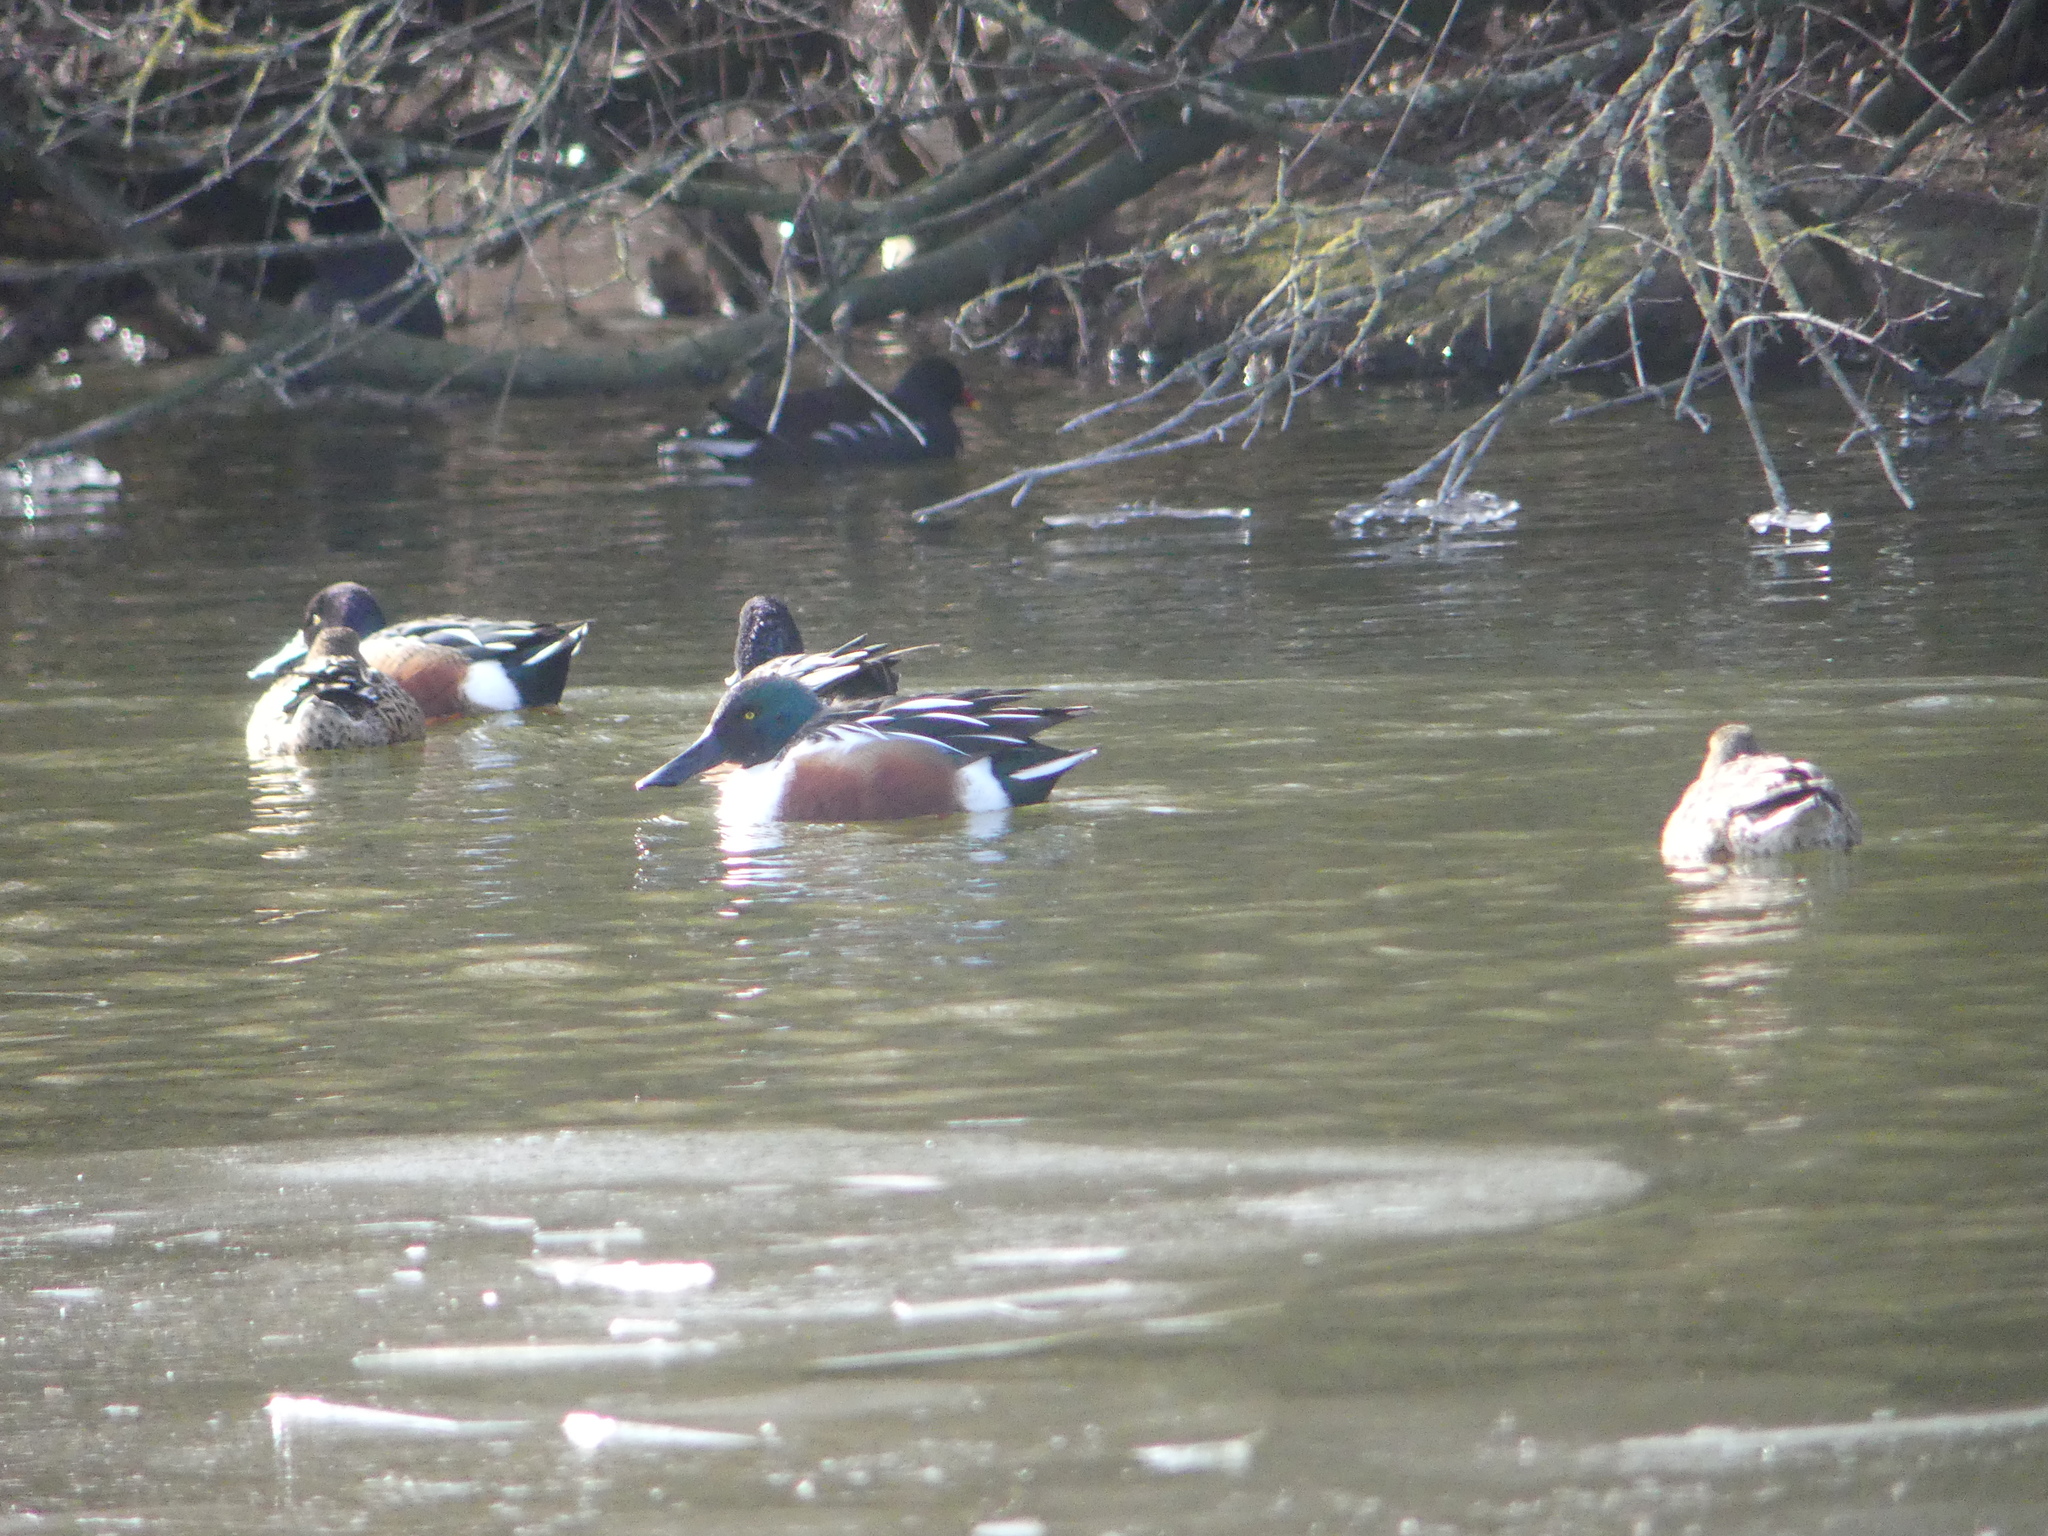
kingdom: Animalia
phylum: Chordata
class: Aves
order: Anseriformes
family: Anatidae
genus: Spatula
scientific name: Spatula clypeata
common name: Northern shoveler
